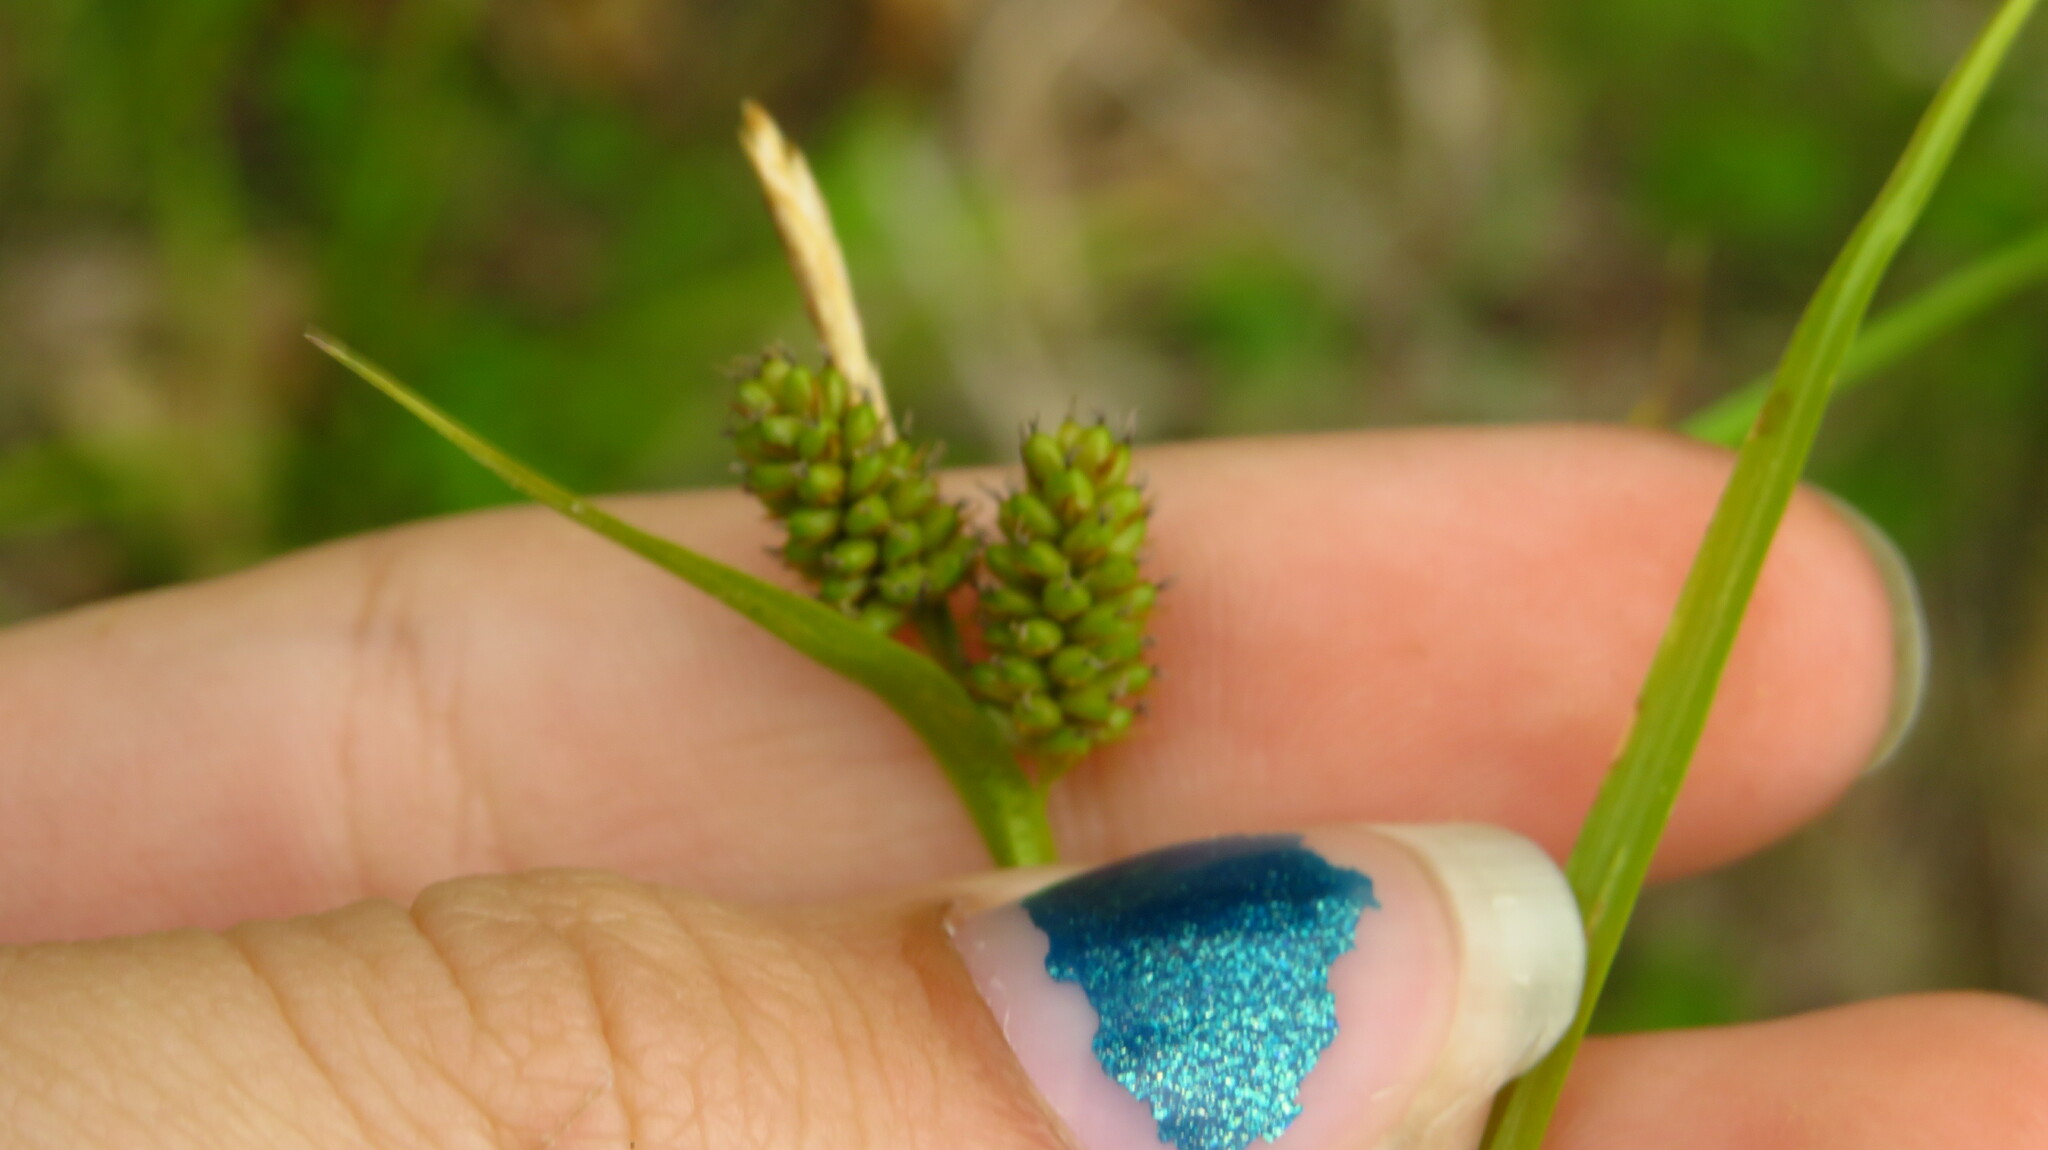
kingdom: Plantae
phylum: Tracheophyta
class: Liliopsida
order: Poales
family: Cyperaceae
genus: Carex
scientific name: Carex pallescens
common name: Pale sedge
